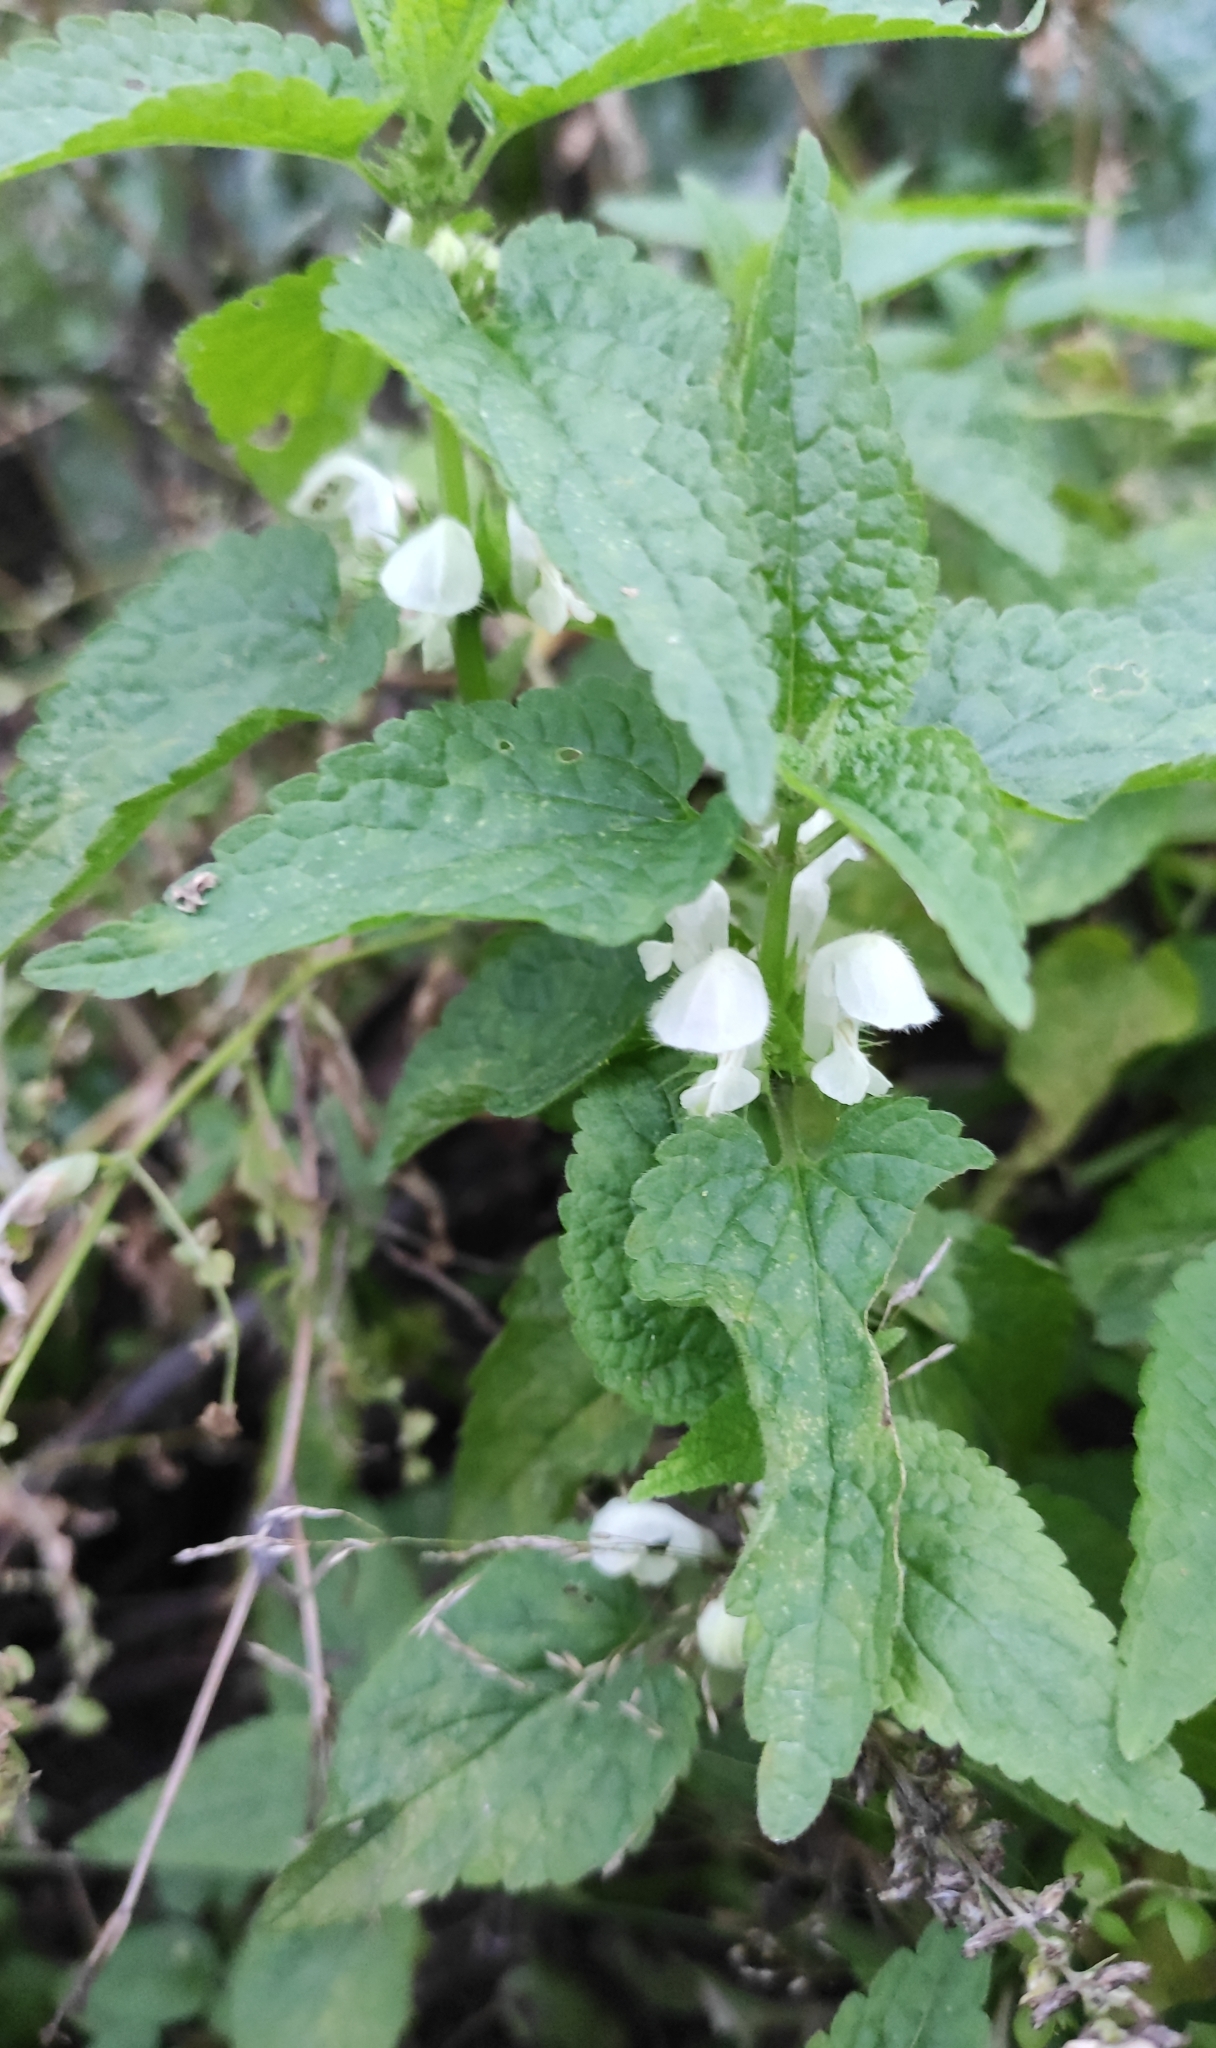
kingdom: Plantae
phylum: Tracheophyta
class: Magnoliopsida
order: Lamiales
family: Lamiaceae
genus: Lamium
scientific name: Lamium album
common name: White dead-nettle
